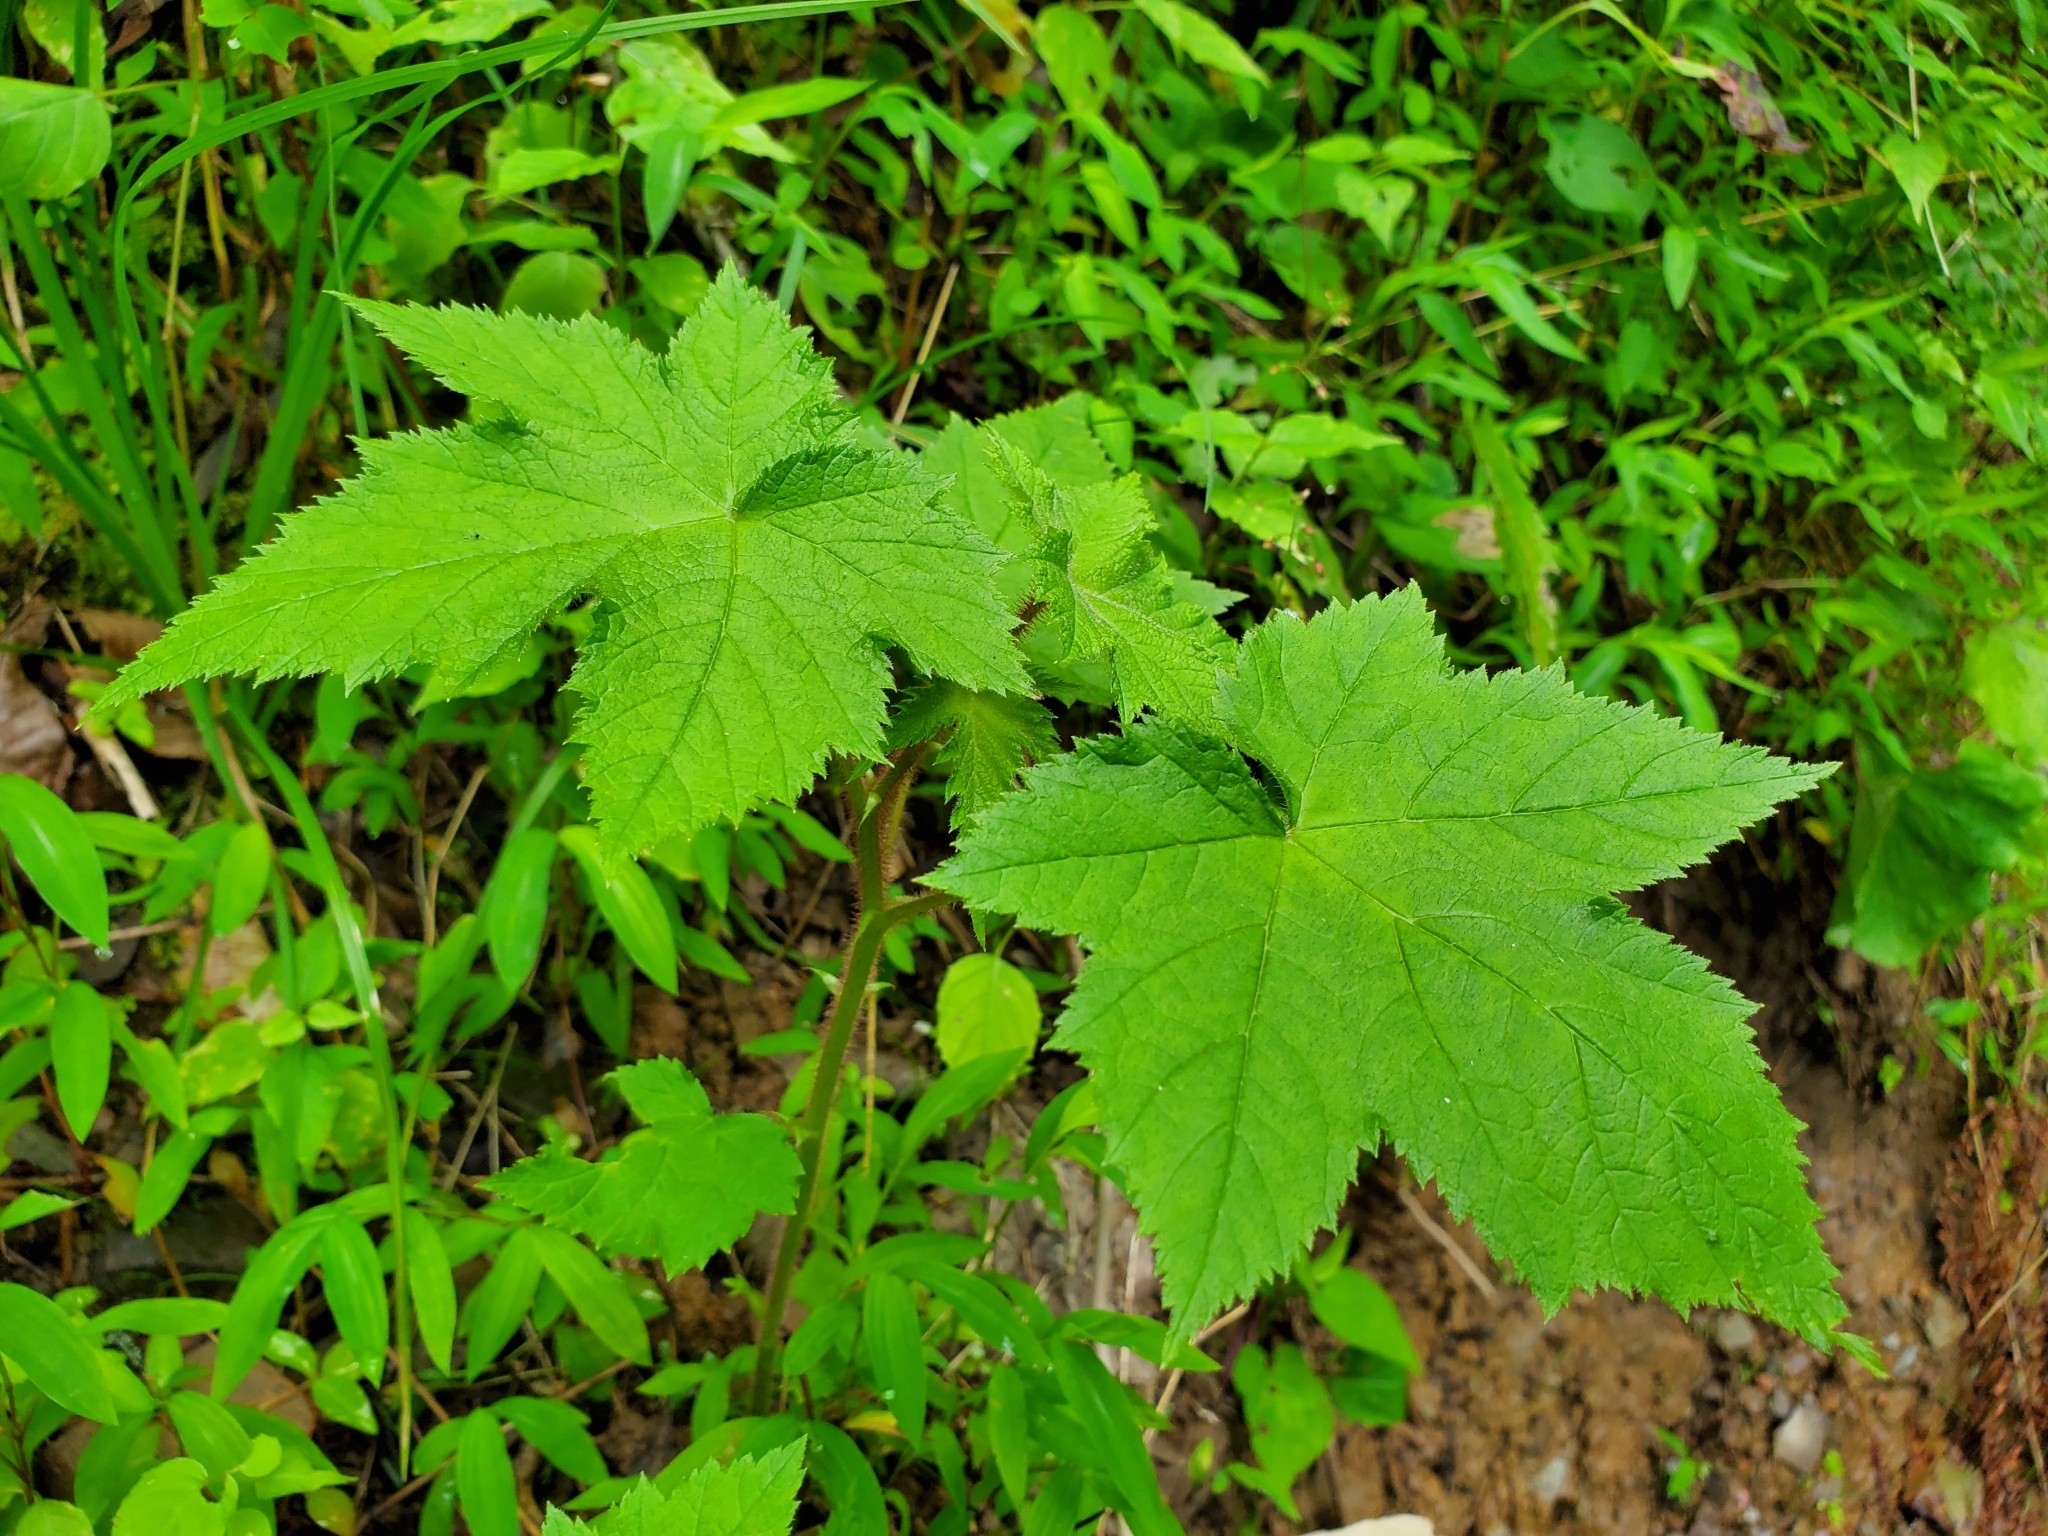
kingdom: Plantae
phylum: Tracheophyta
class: Magnoliopsida
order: Rosales
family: Rosaceae
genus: Rubus
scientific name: Rubus odoratus
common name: Purple-flowered raspberry
